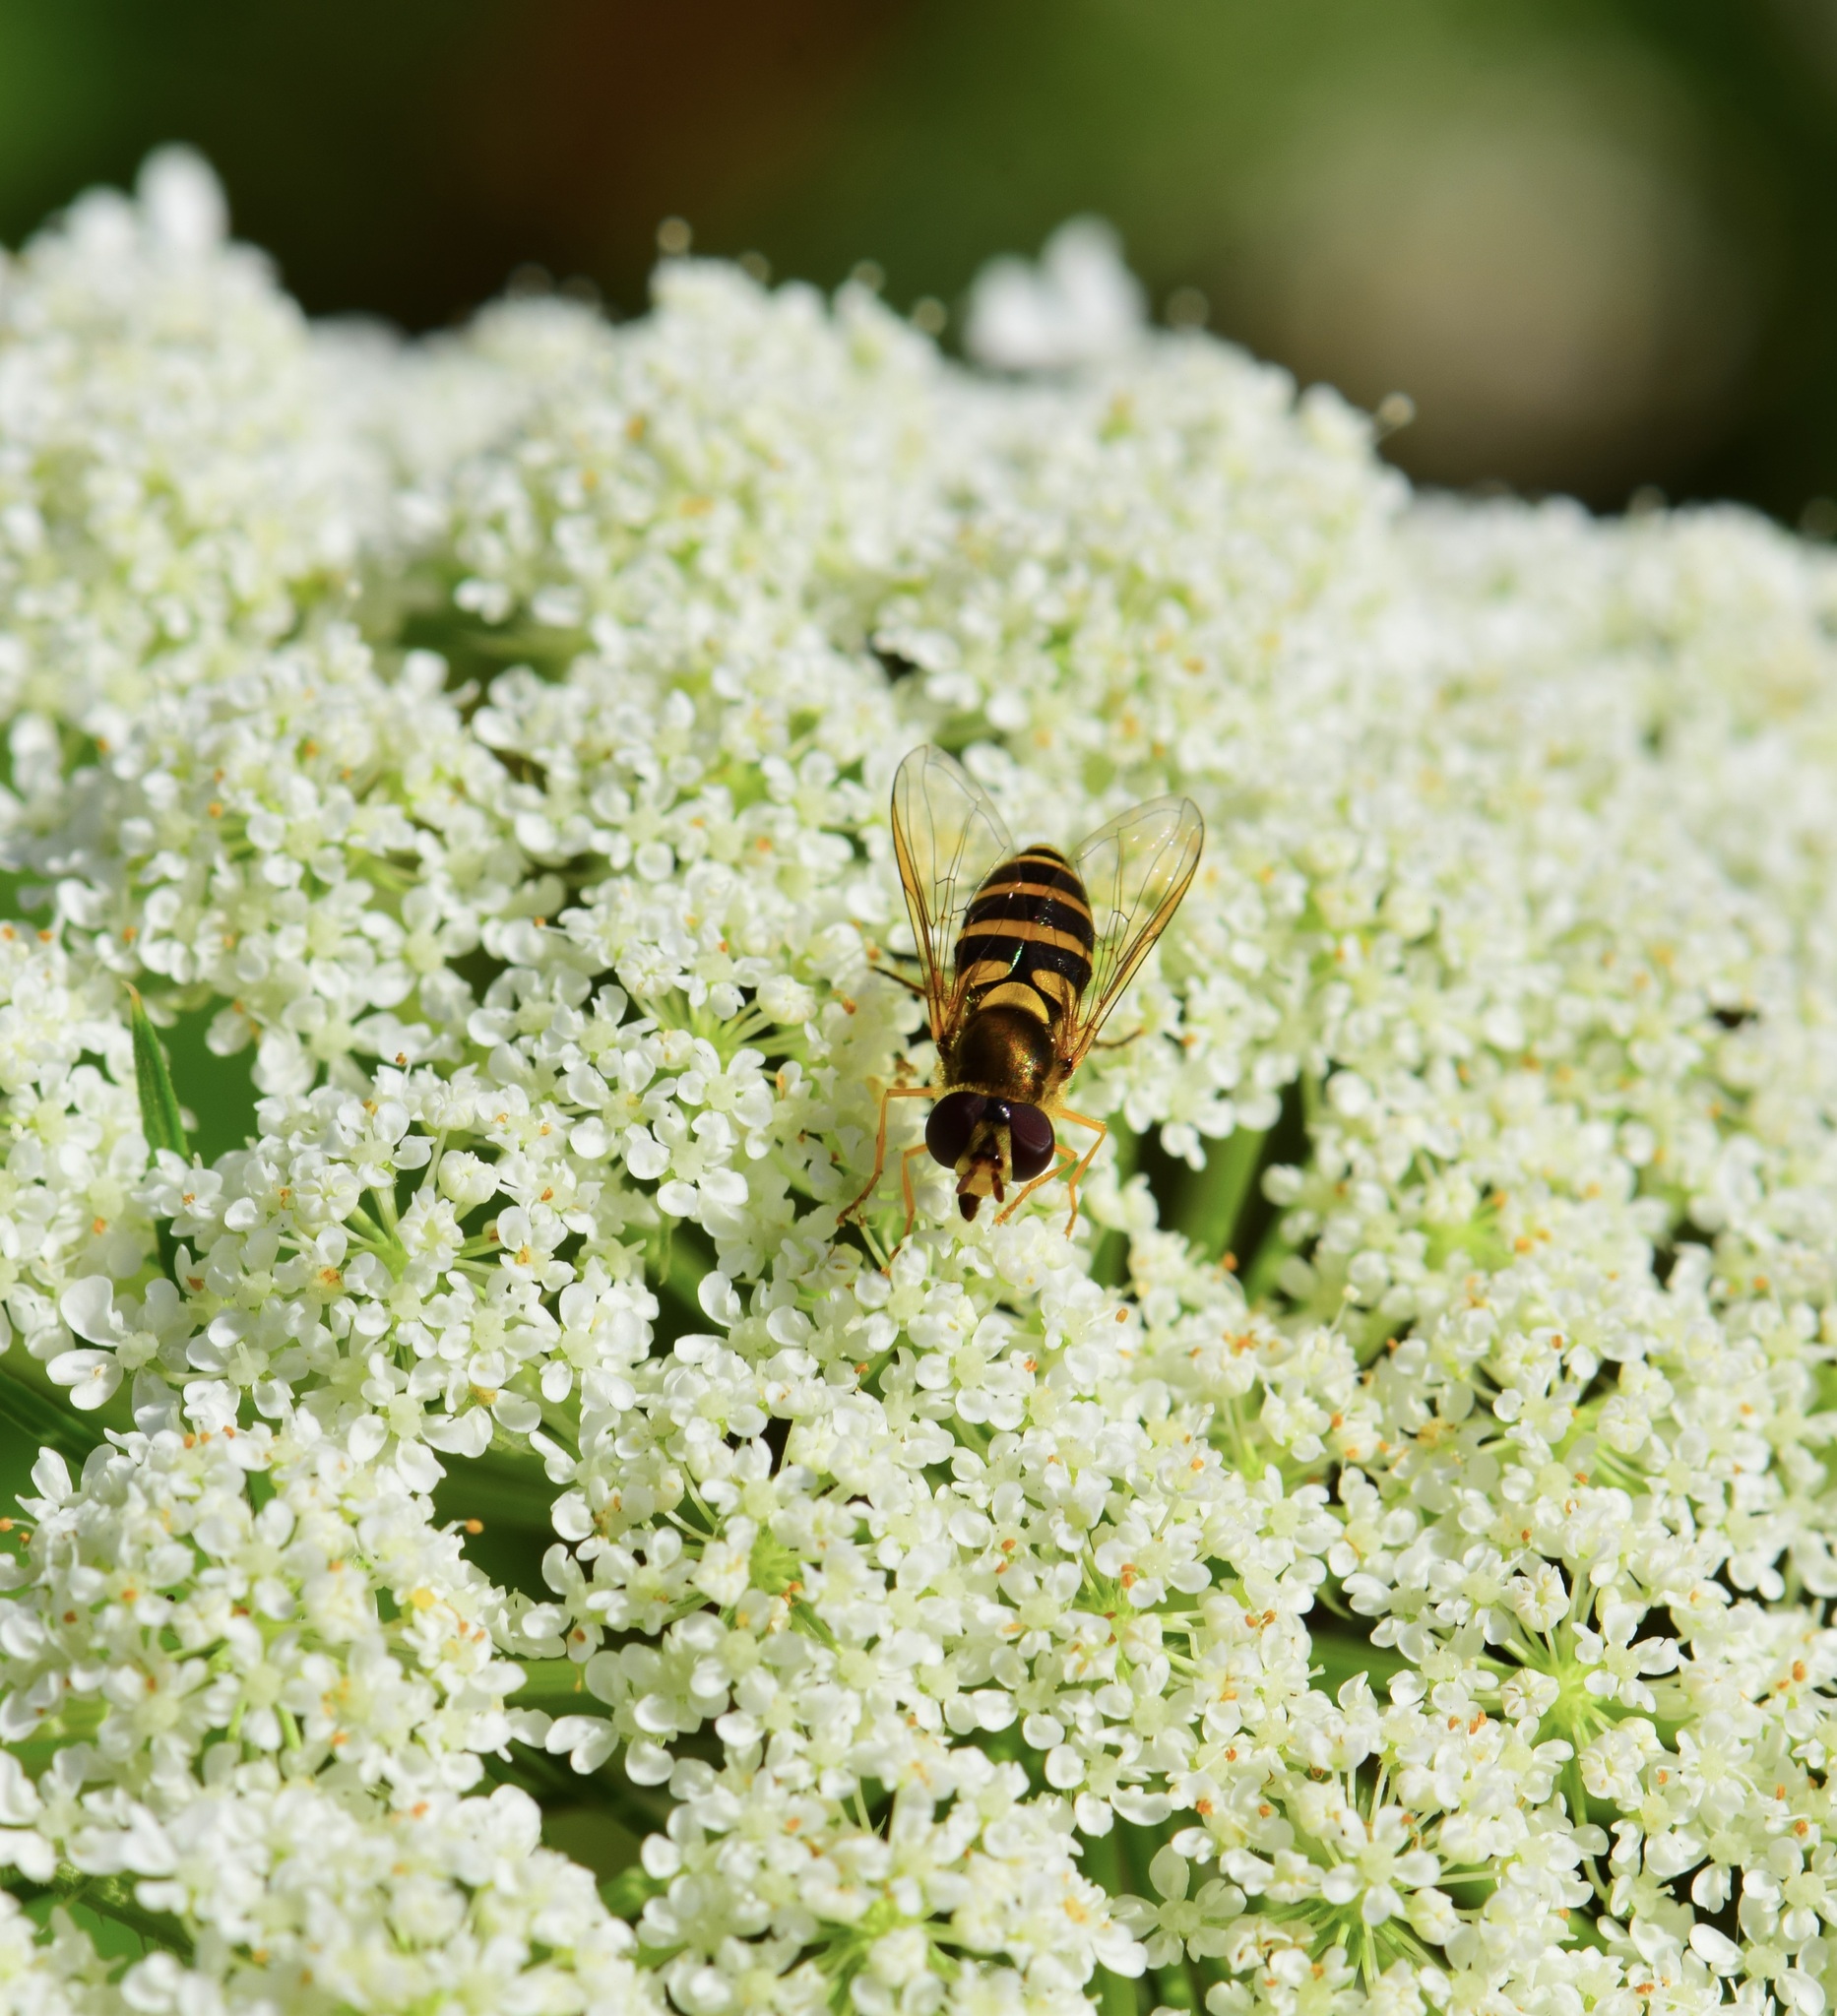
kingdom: Animalia
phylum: Arthropoda
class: Insecta
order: Diptera
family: Syrphidae
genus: Syrphus
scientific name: Syrphus
